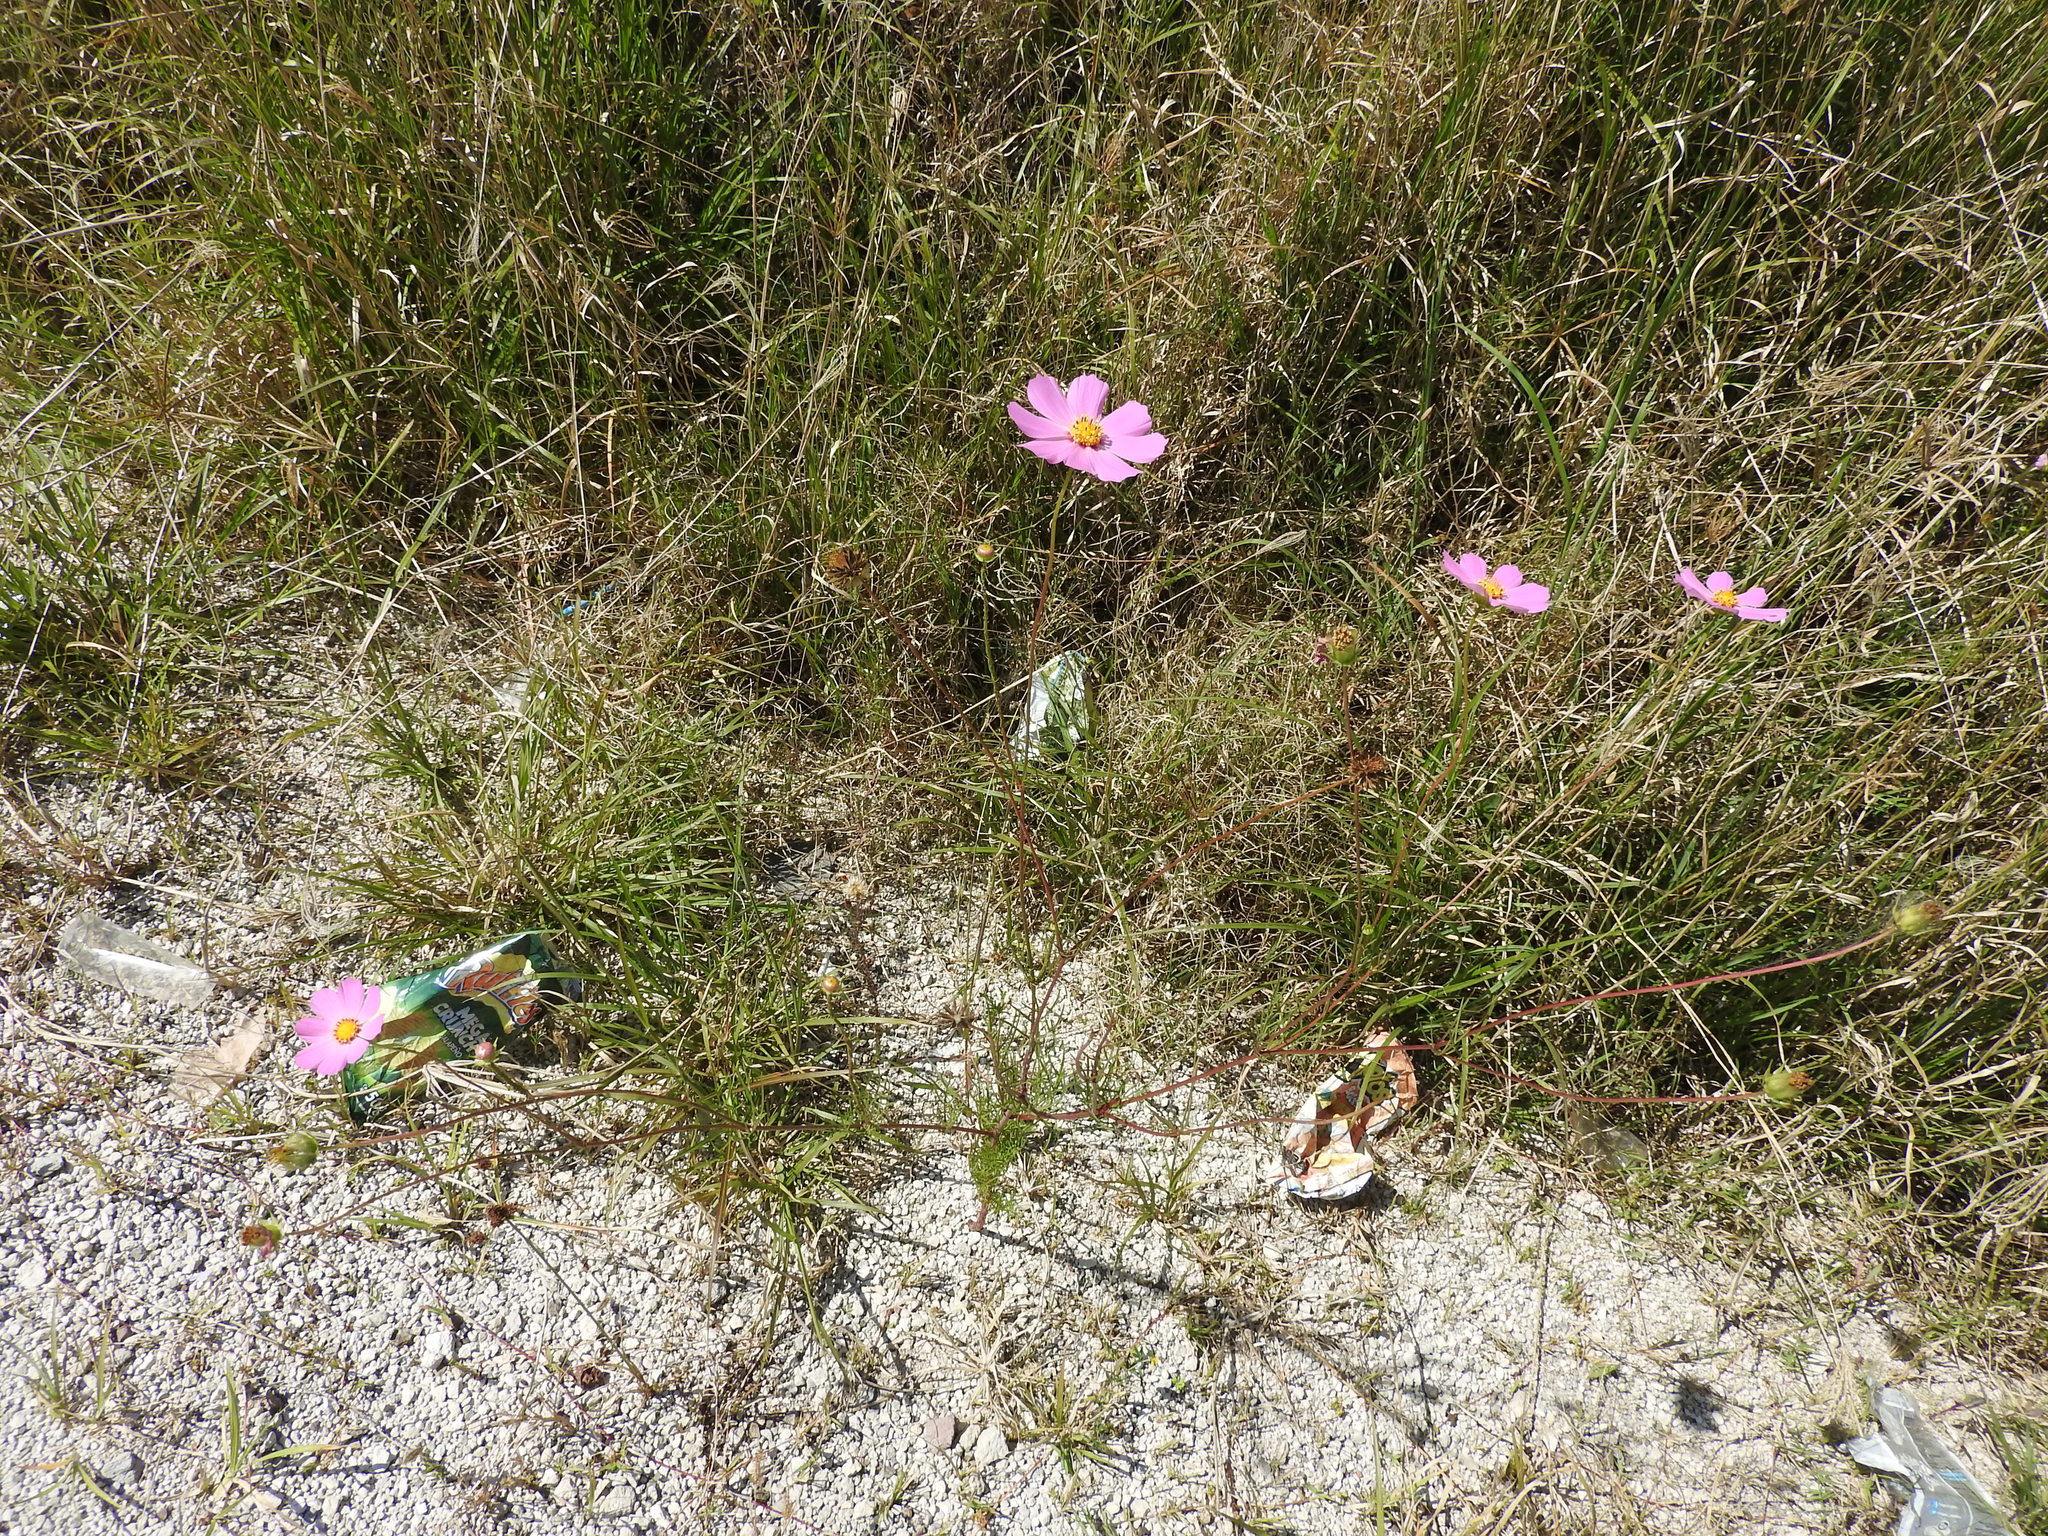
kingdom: Plantae
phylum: Tracheophyta
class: Magnoliopsida
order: Asterales
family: Asteraceae
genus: Cosmos
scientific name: Cosmos bipinnatus
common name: Garden cosmos
